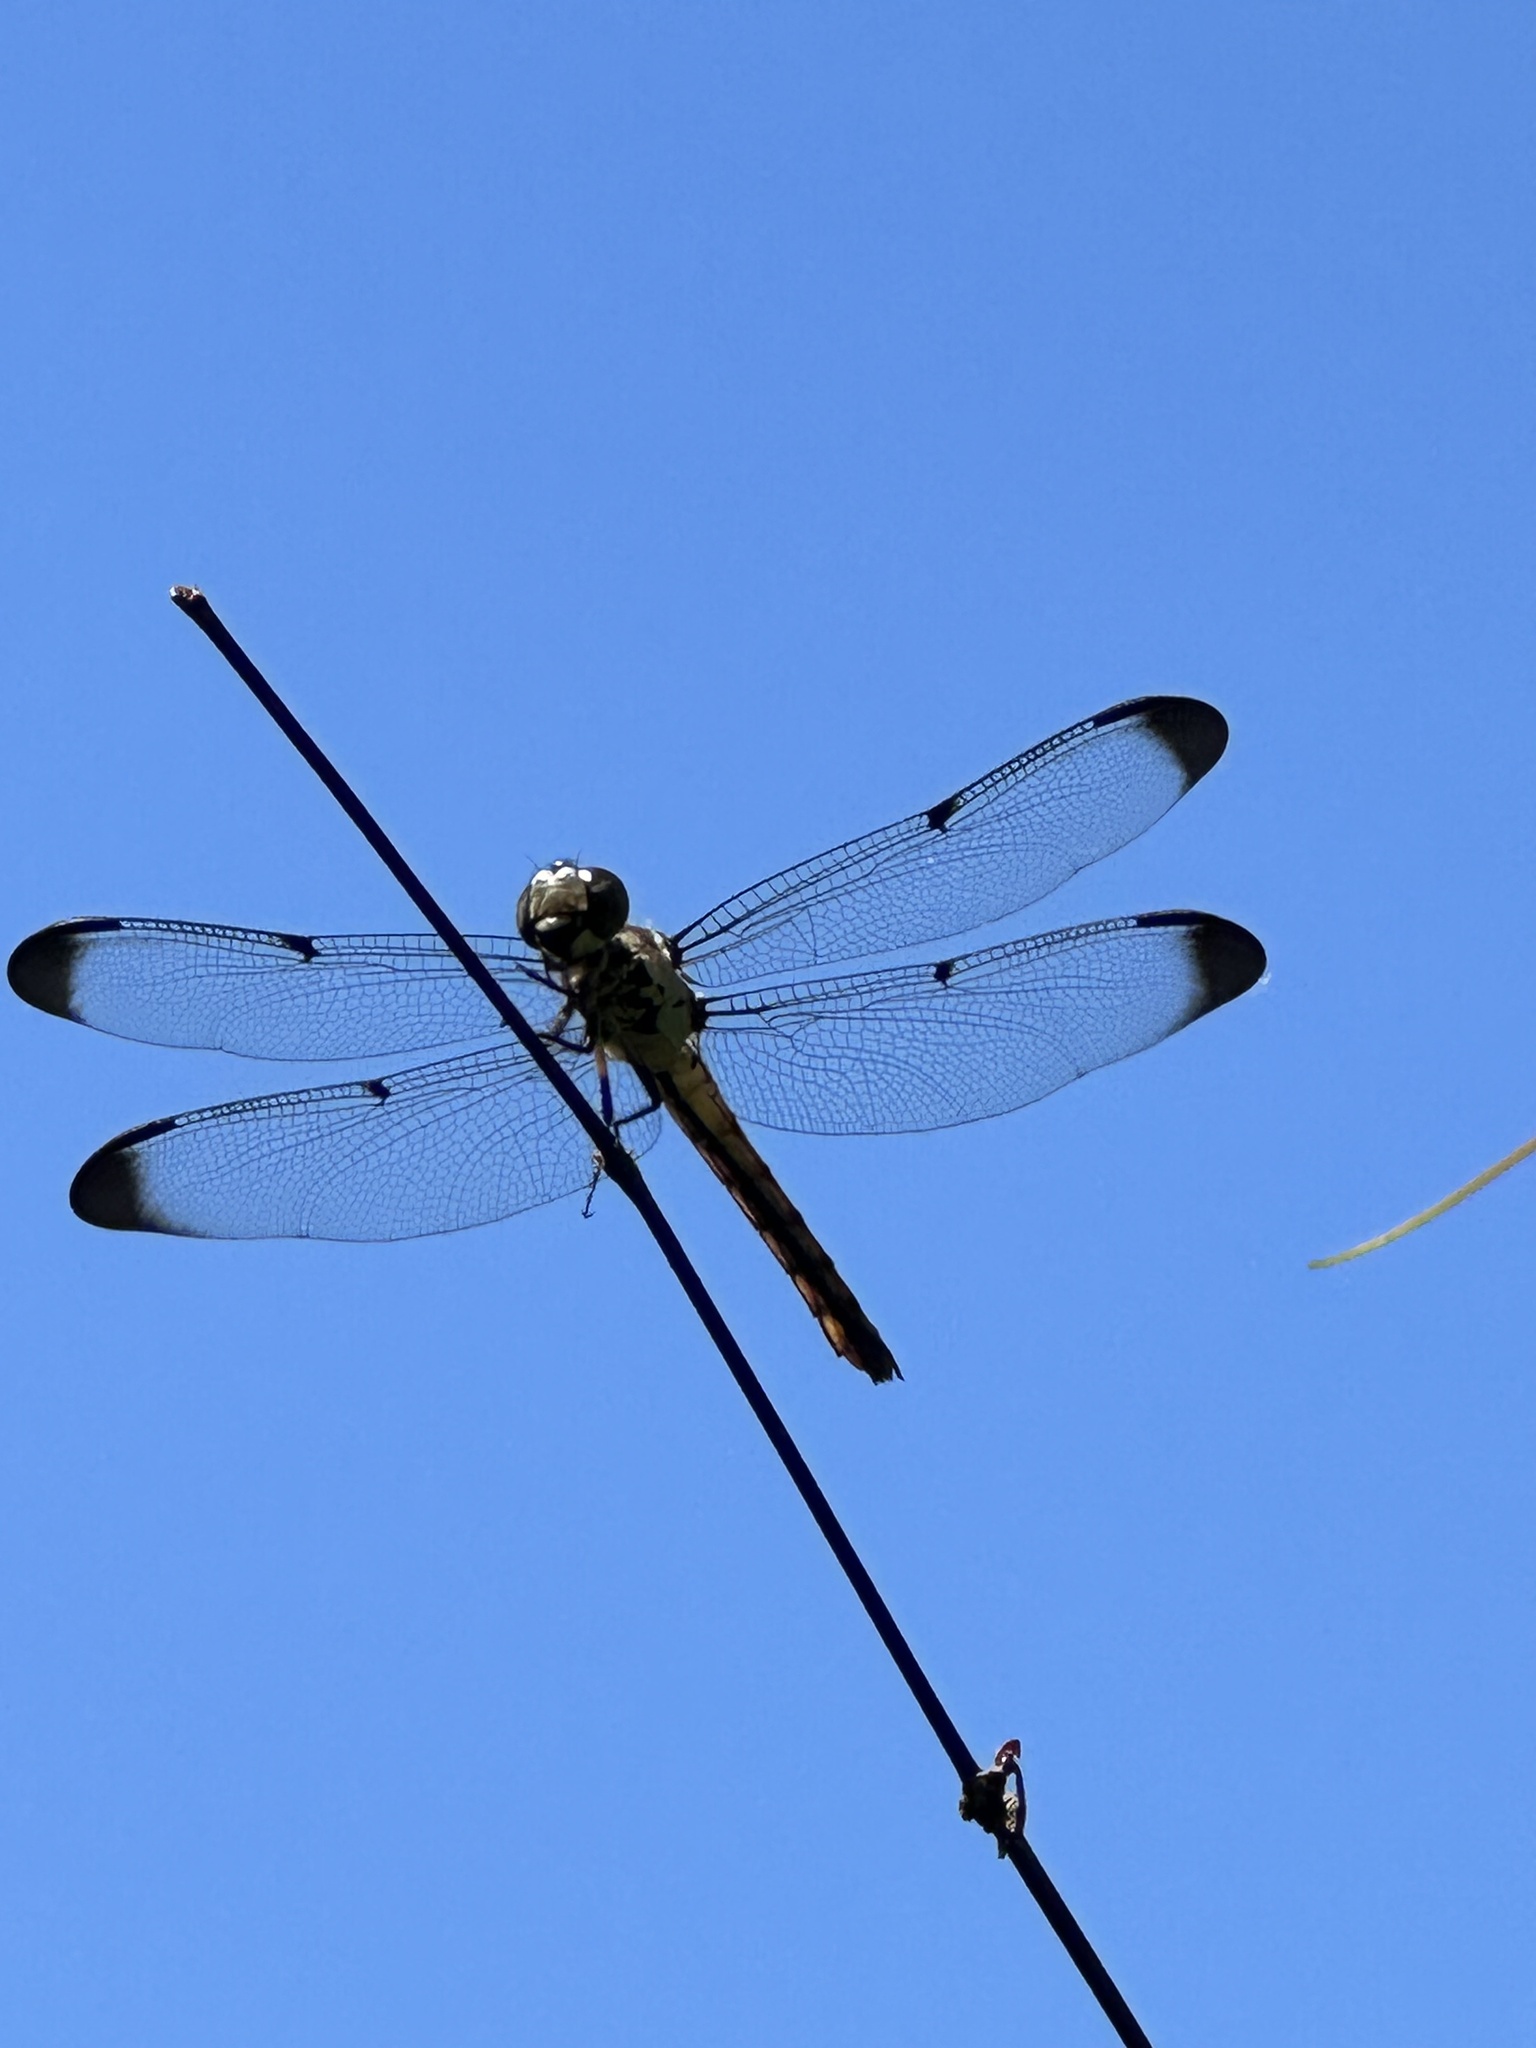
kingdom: Animalia
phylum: Arthropoda
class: Insecta
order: Odonata
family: Libellulidae
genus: Libellula
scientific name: Libellula vibrans
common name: Great blue skimmer
